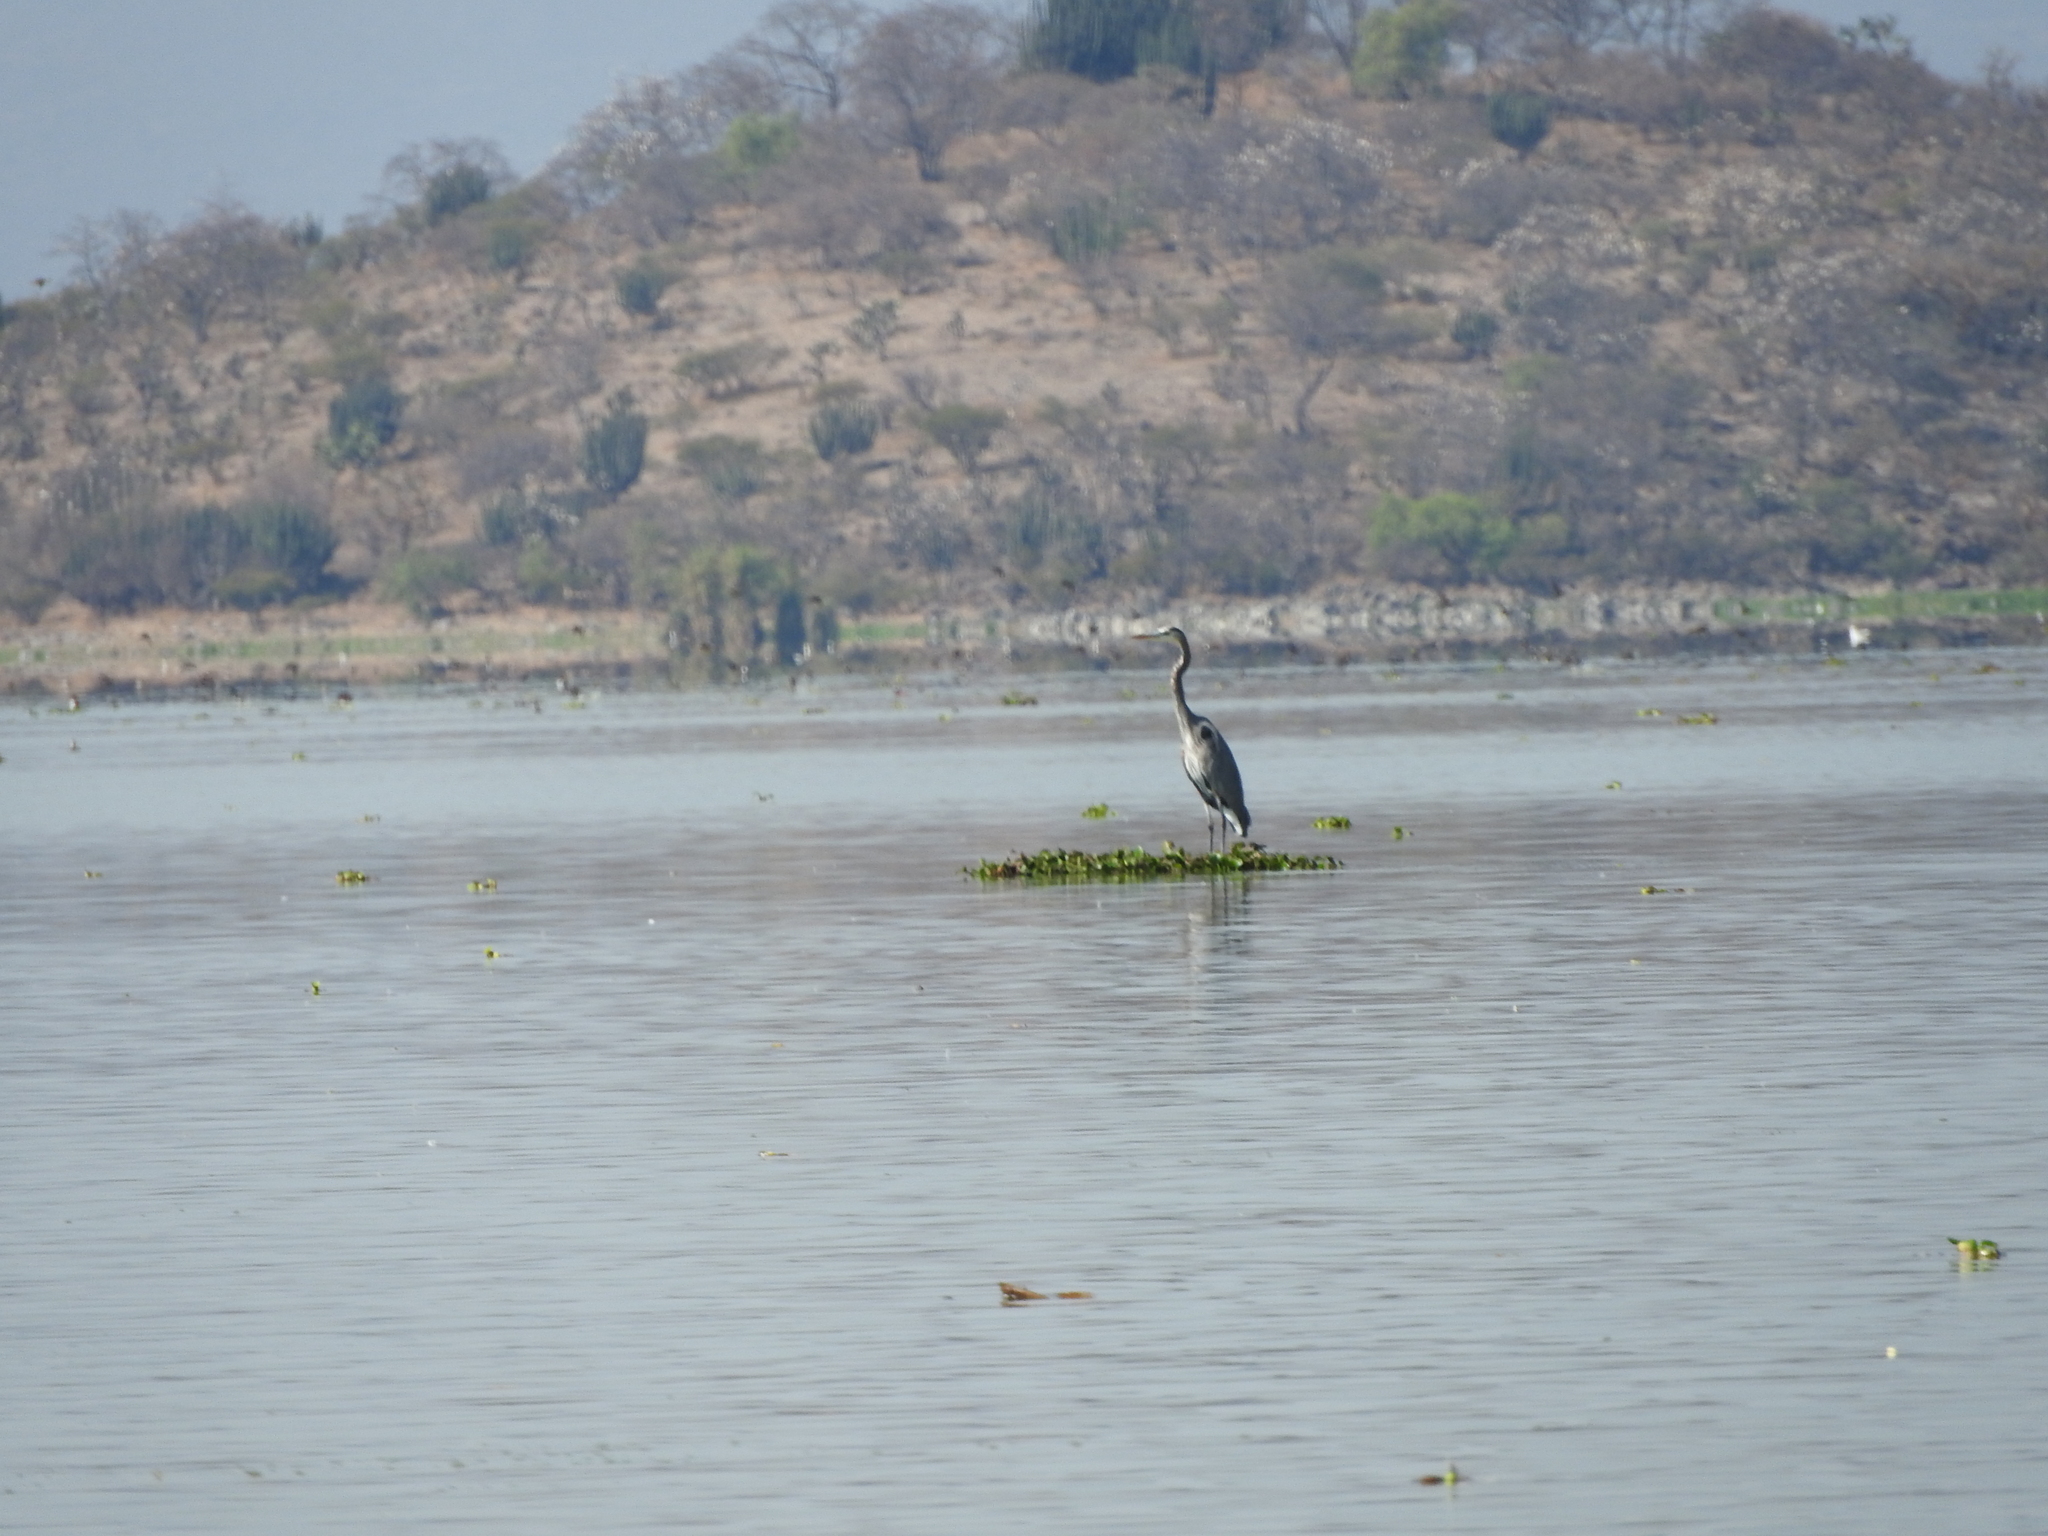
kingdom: Animalia
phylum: Chordata
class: Aves
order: Pelecaniformes
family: Ardeidae
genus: Ardea
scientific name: Ardea herodias
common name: Great blue heron
